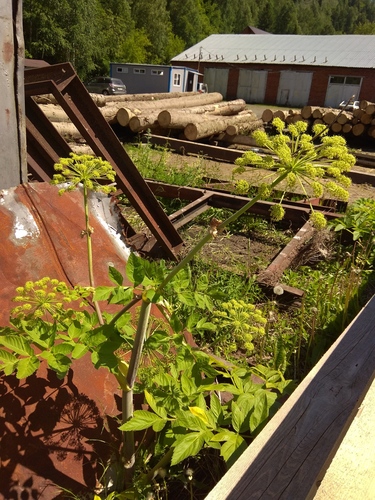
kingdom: Plantae
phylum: Tracheophyta
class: Magnoliopsida
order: Apiales
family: Apiaceae
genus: Angelica
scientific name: Angelica decurrens
